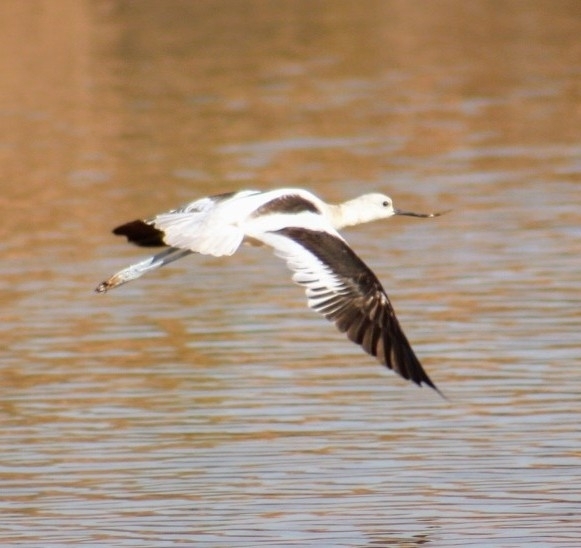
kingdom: Animalia
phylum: Chordata
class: Aves
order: Charadriiformes
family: Recurvirostridae
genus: Recurvirostra
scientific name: Recurvirostra americana
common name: American avocet
